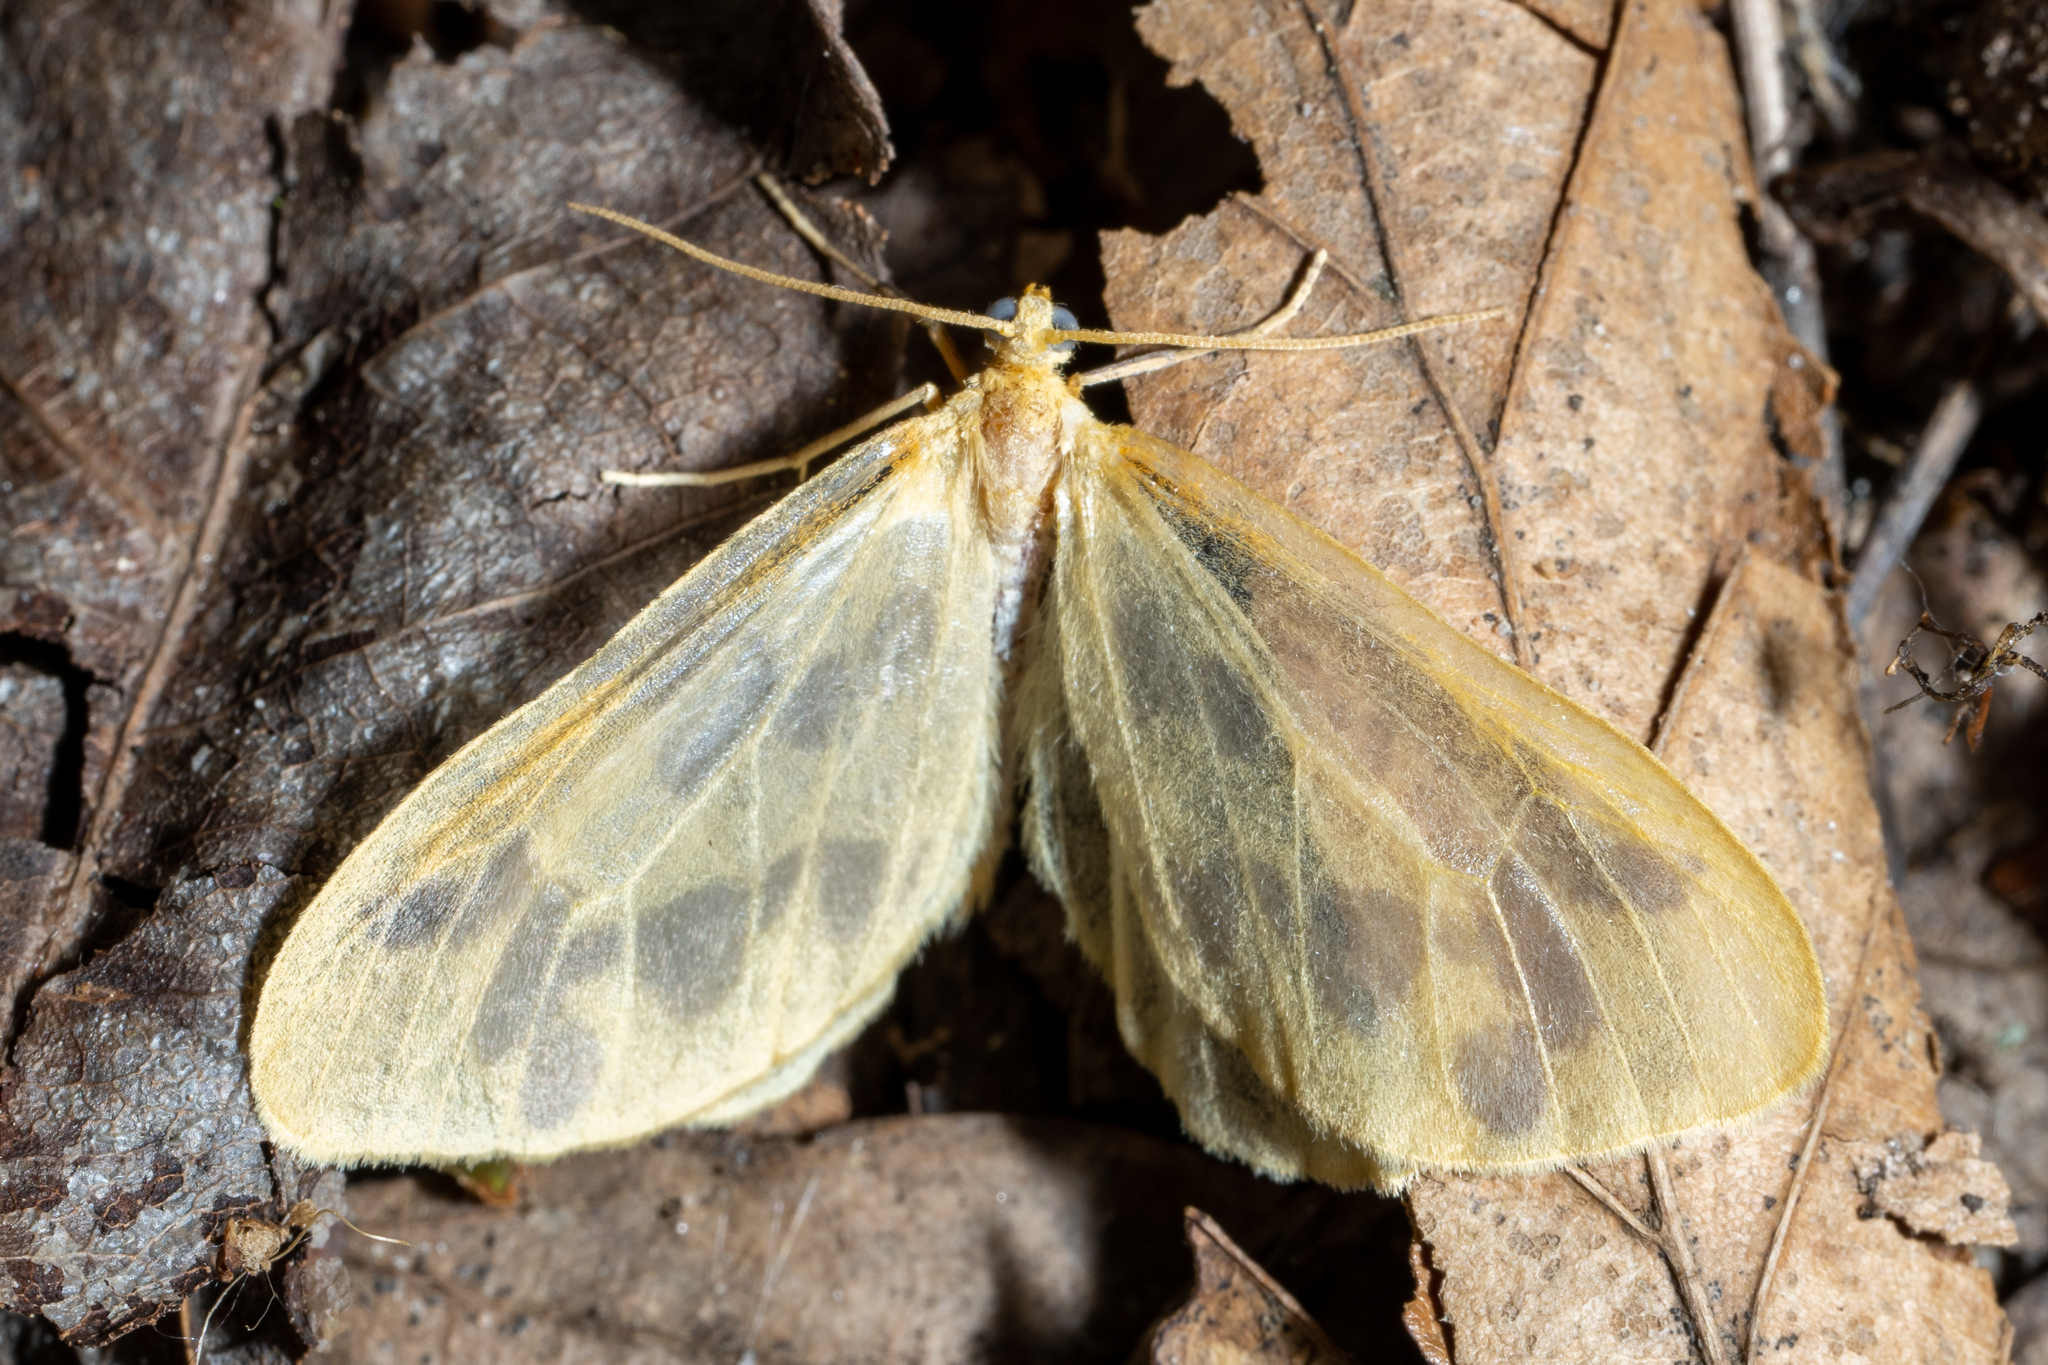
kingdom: Animalia
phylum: Arthropoda
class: Insecta
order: Lepidoptera
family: Geometridae
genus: Eubaphe
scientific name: Eubaphe mendica
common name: Beggar
